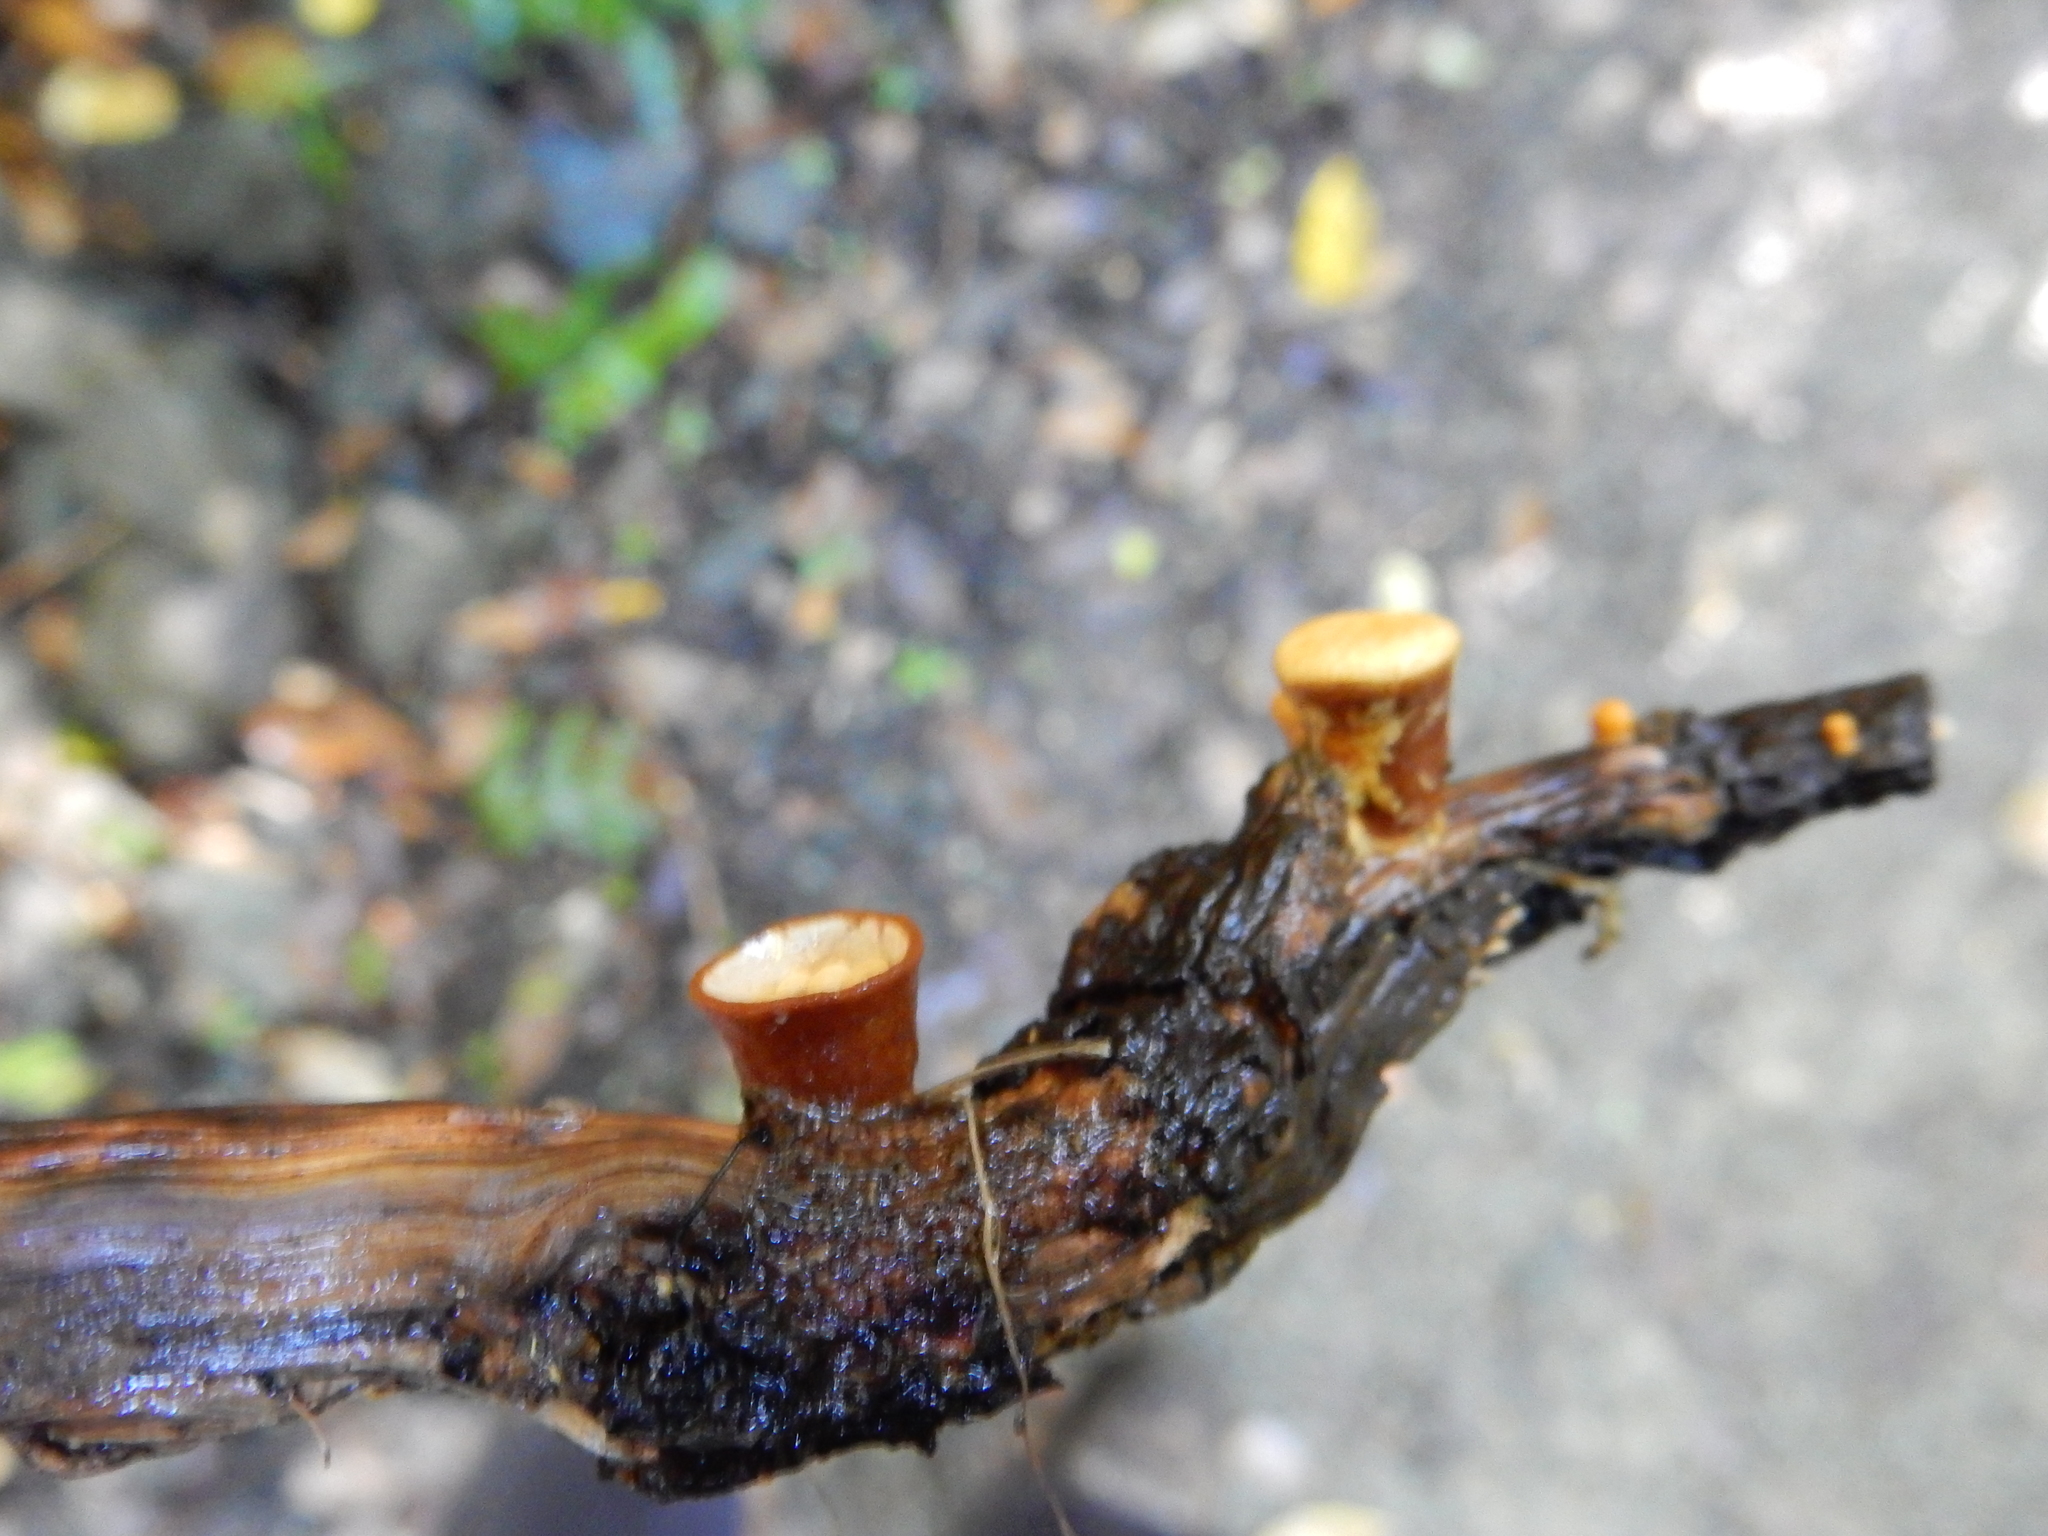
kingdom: Fungi
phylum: Basidiomycota
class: Agaricomycetes
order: Agaricales
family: Nidulariaceae
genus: Crucibulum
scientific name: Crucibulum simile
